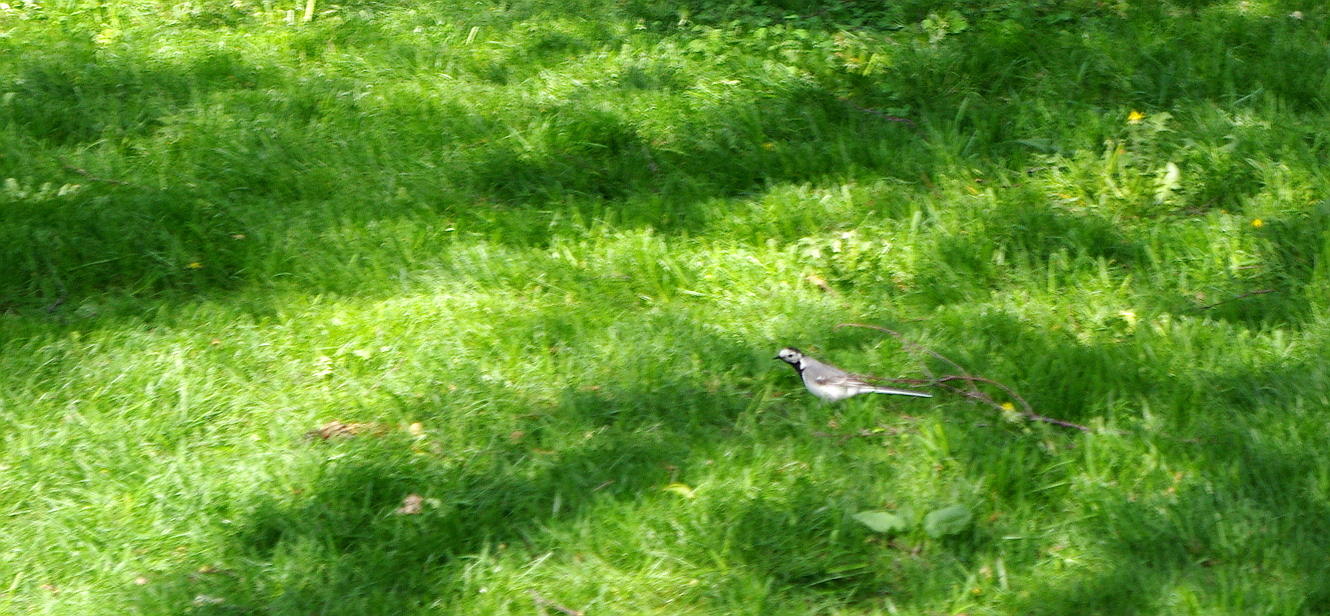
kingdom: Animalia
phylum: Chordata
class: Aves
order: Passeriformes
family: Motacillidae
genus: Motacilla
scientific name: Motacilla alba
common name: White wagtail
